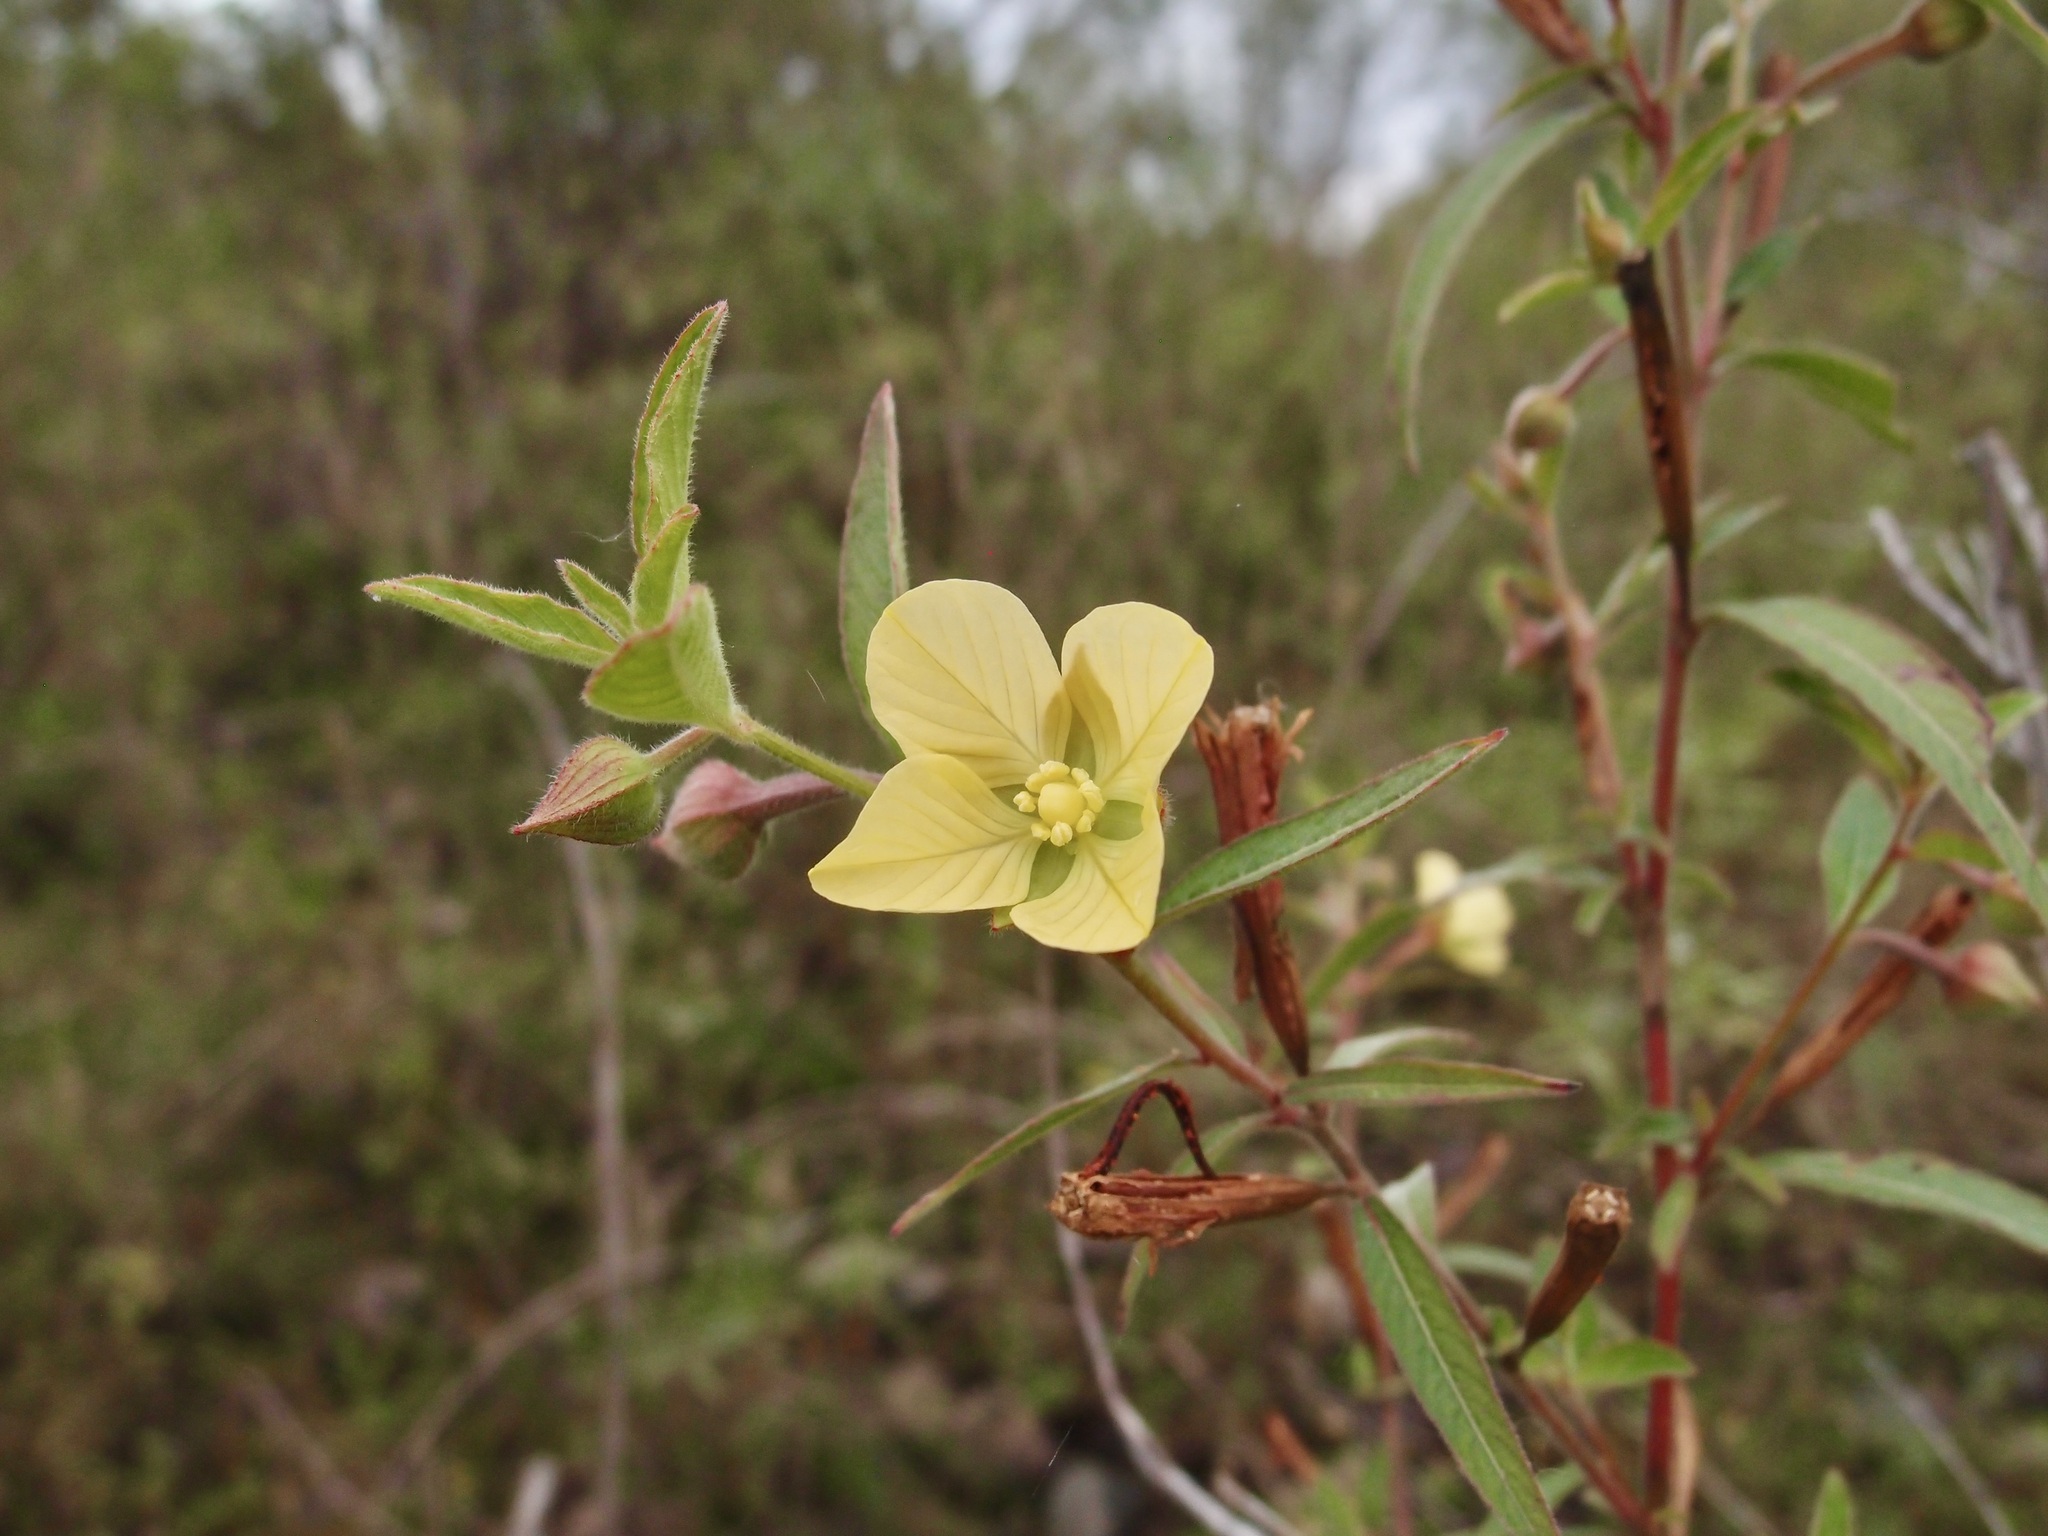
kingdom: Plantae
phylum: Tracheophyta
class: Magnoliopsida
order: Myrtales
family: Onagraceae
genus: Ludwigia
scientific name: Ludwigia octovalvis
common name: Water-primrose
